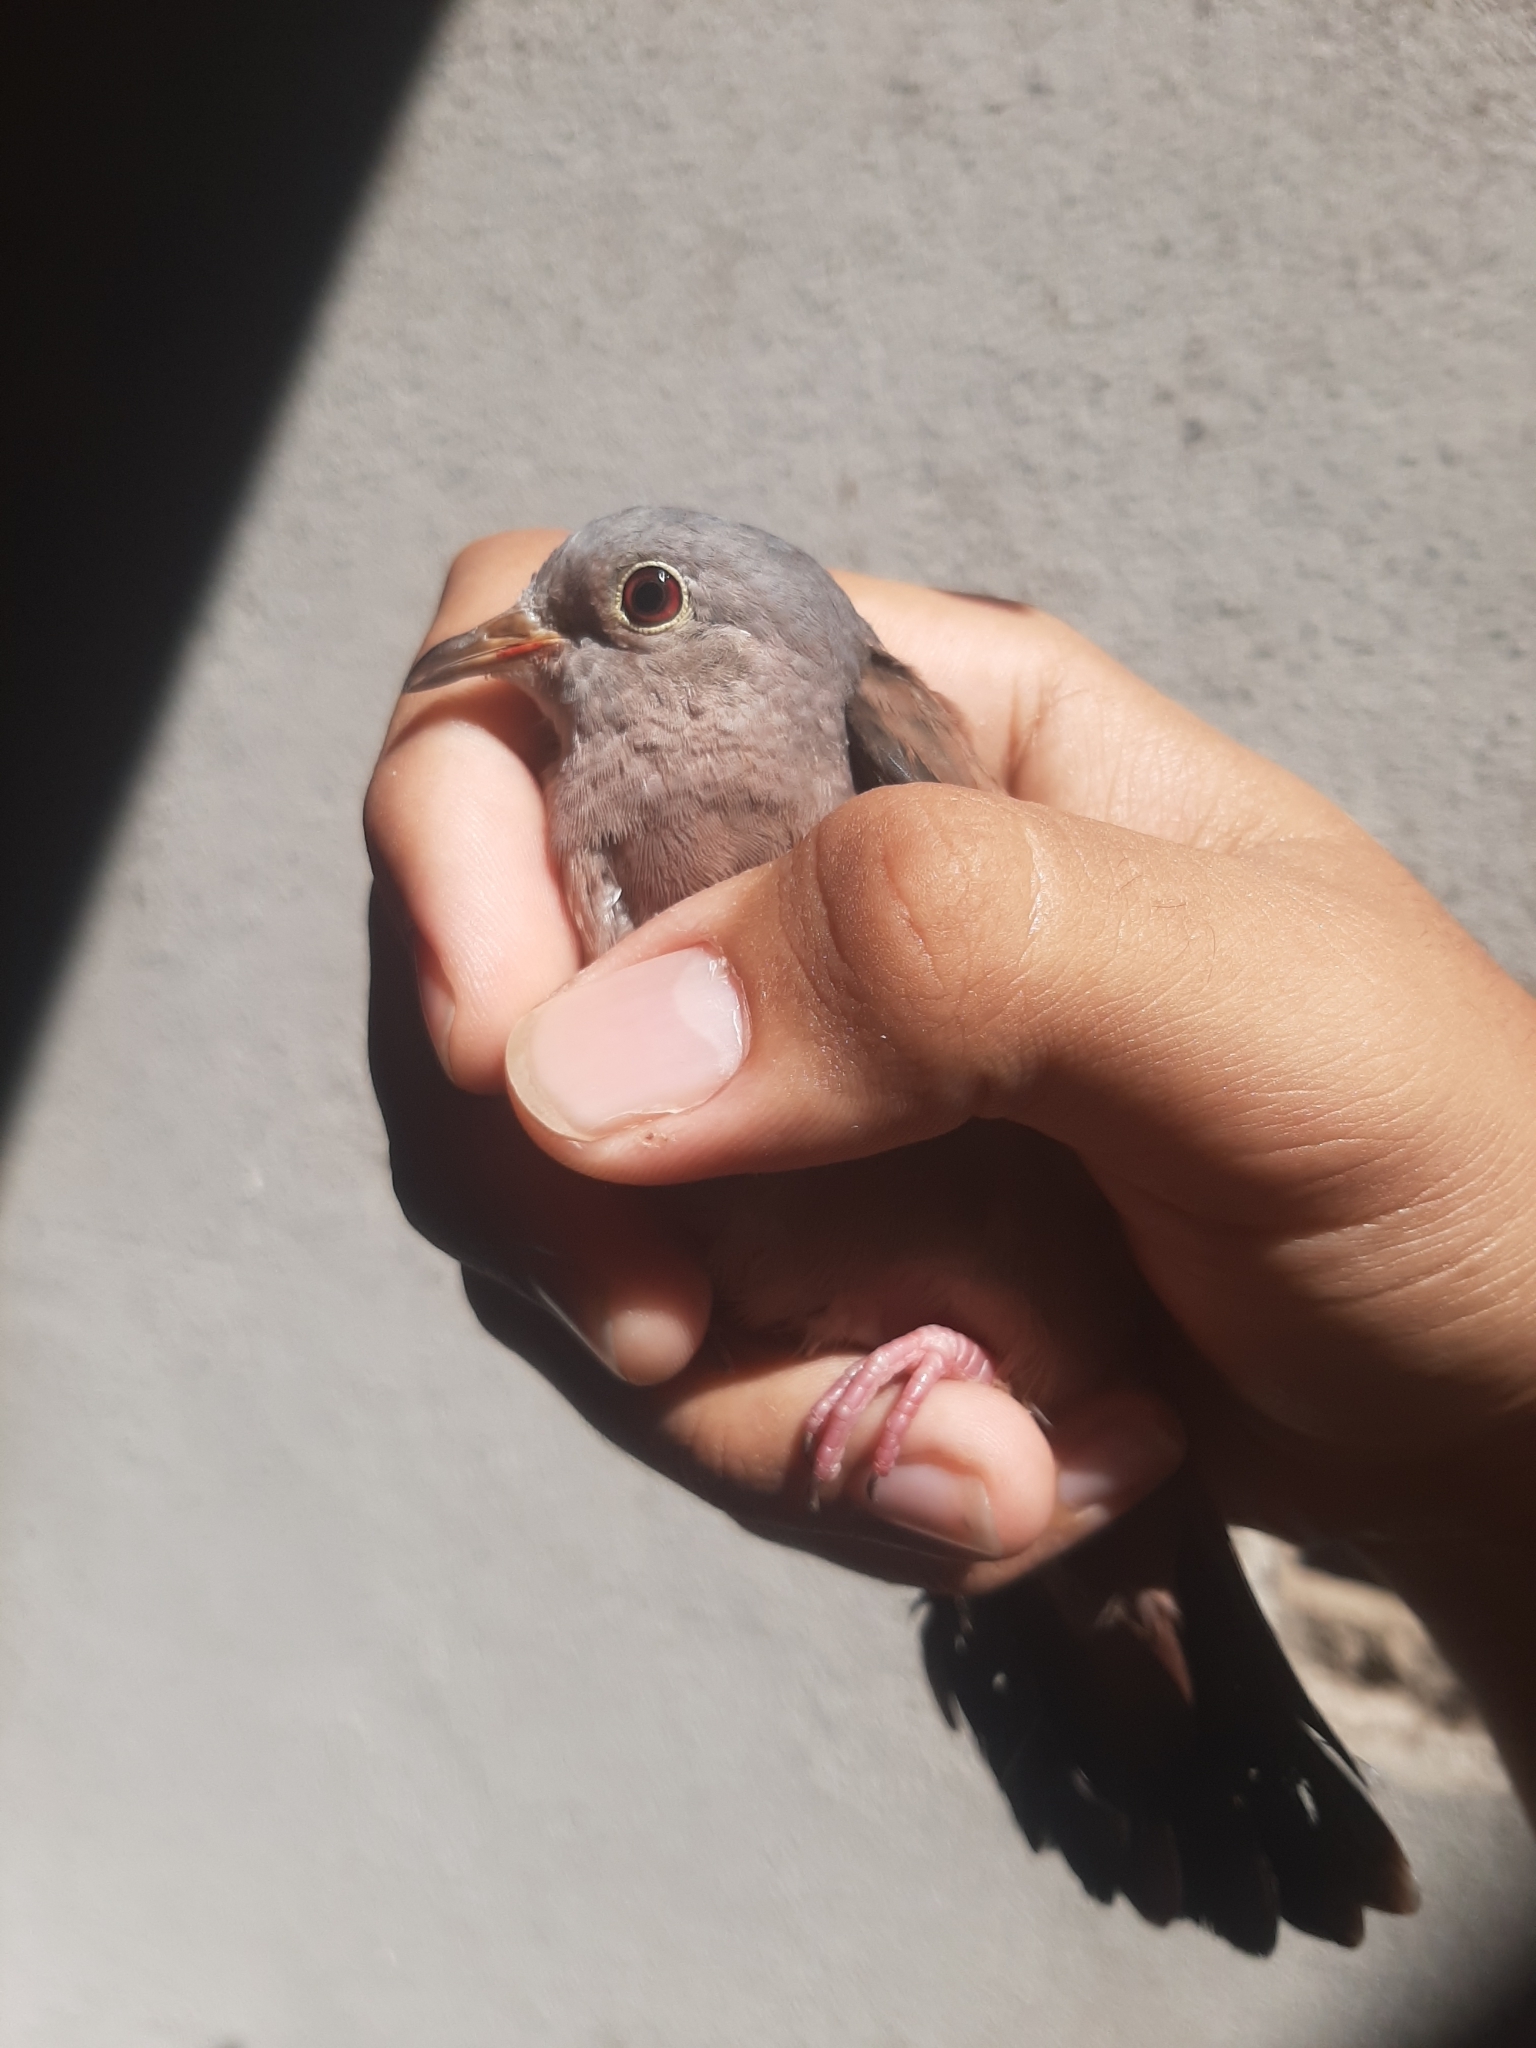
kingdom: Animalia
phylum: Chordata
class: Aves
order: Columbiformes
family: Columbidae
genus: Columbina
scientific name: Columbina talpacoti
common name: Ruddy ground dove
